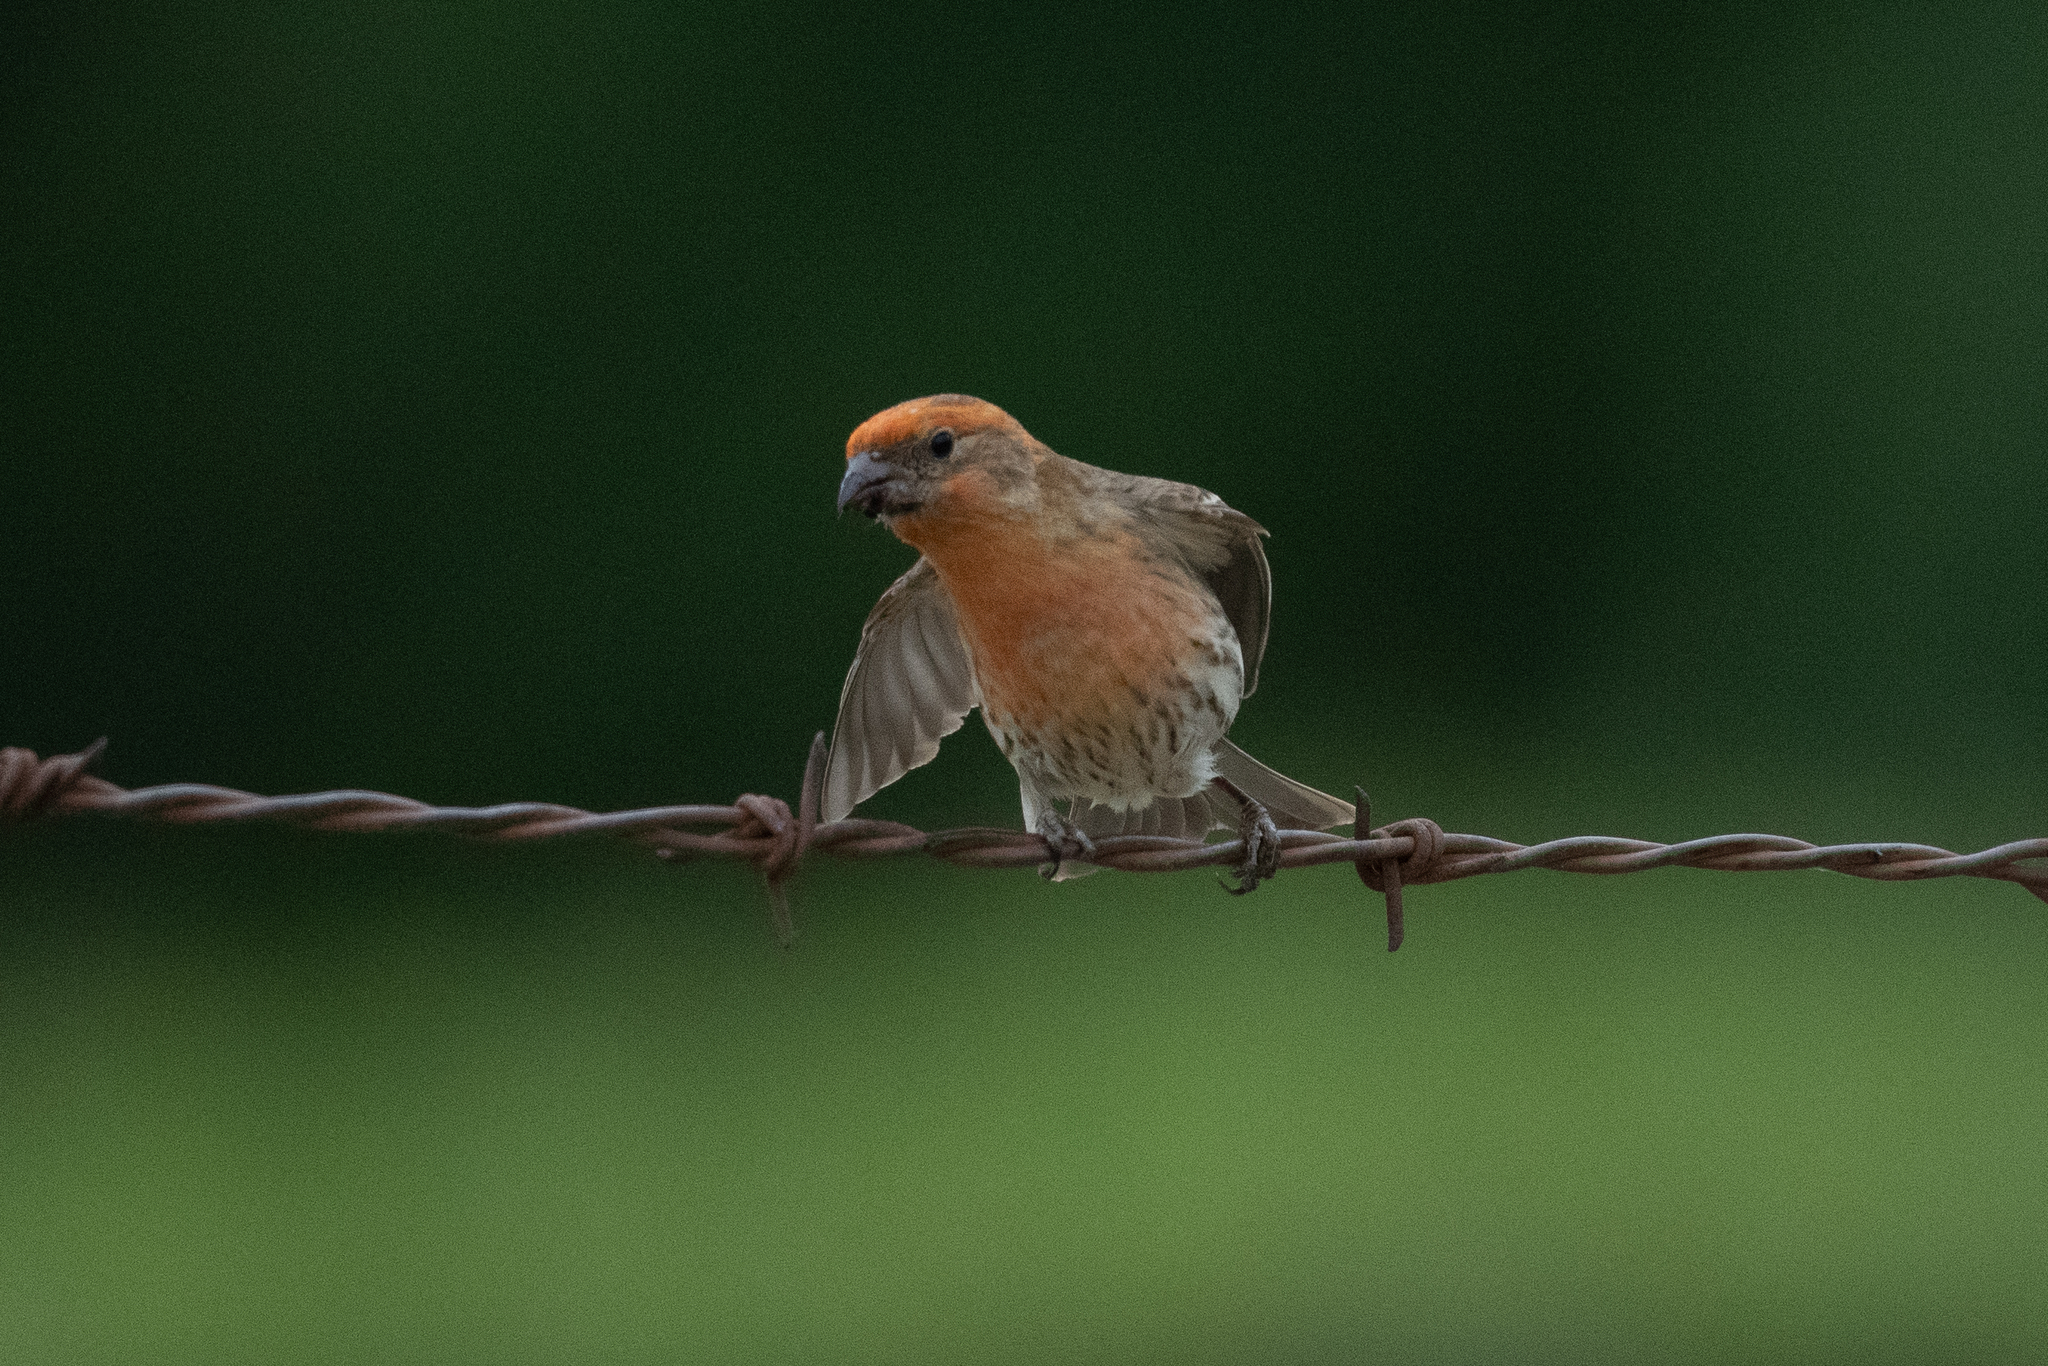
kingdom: Animalia
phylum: Chordata
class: Aves
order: Passeriformes
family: Fringillidae
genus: Haemorhous
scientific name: Haemorhous mexicanus
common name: House finch
